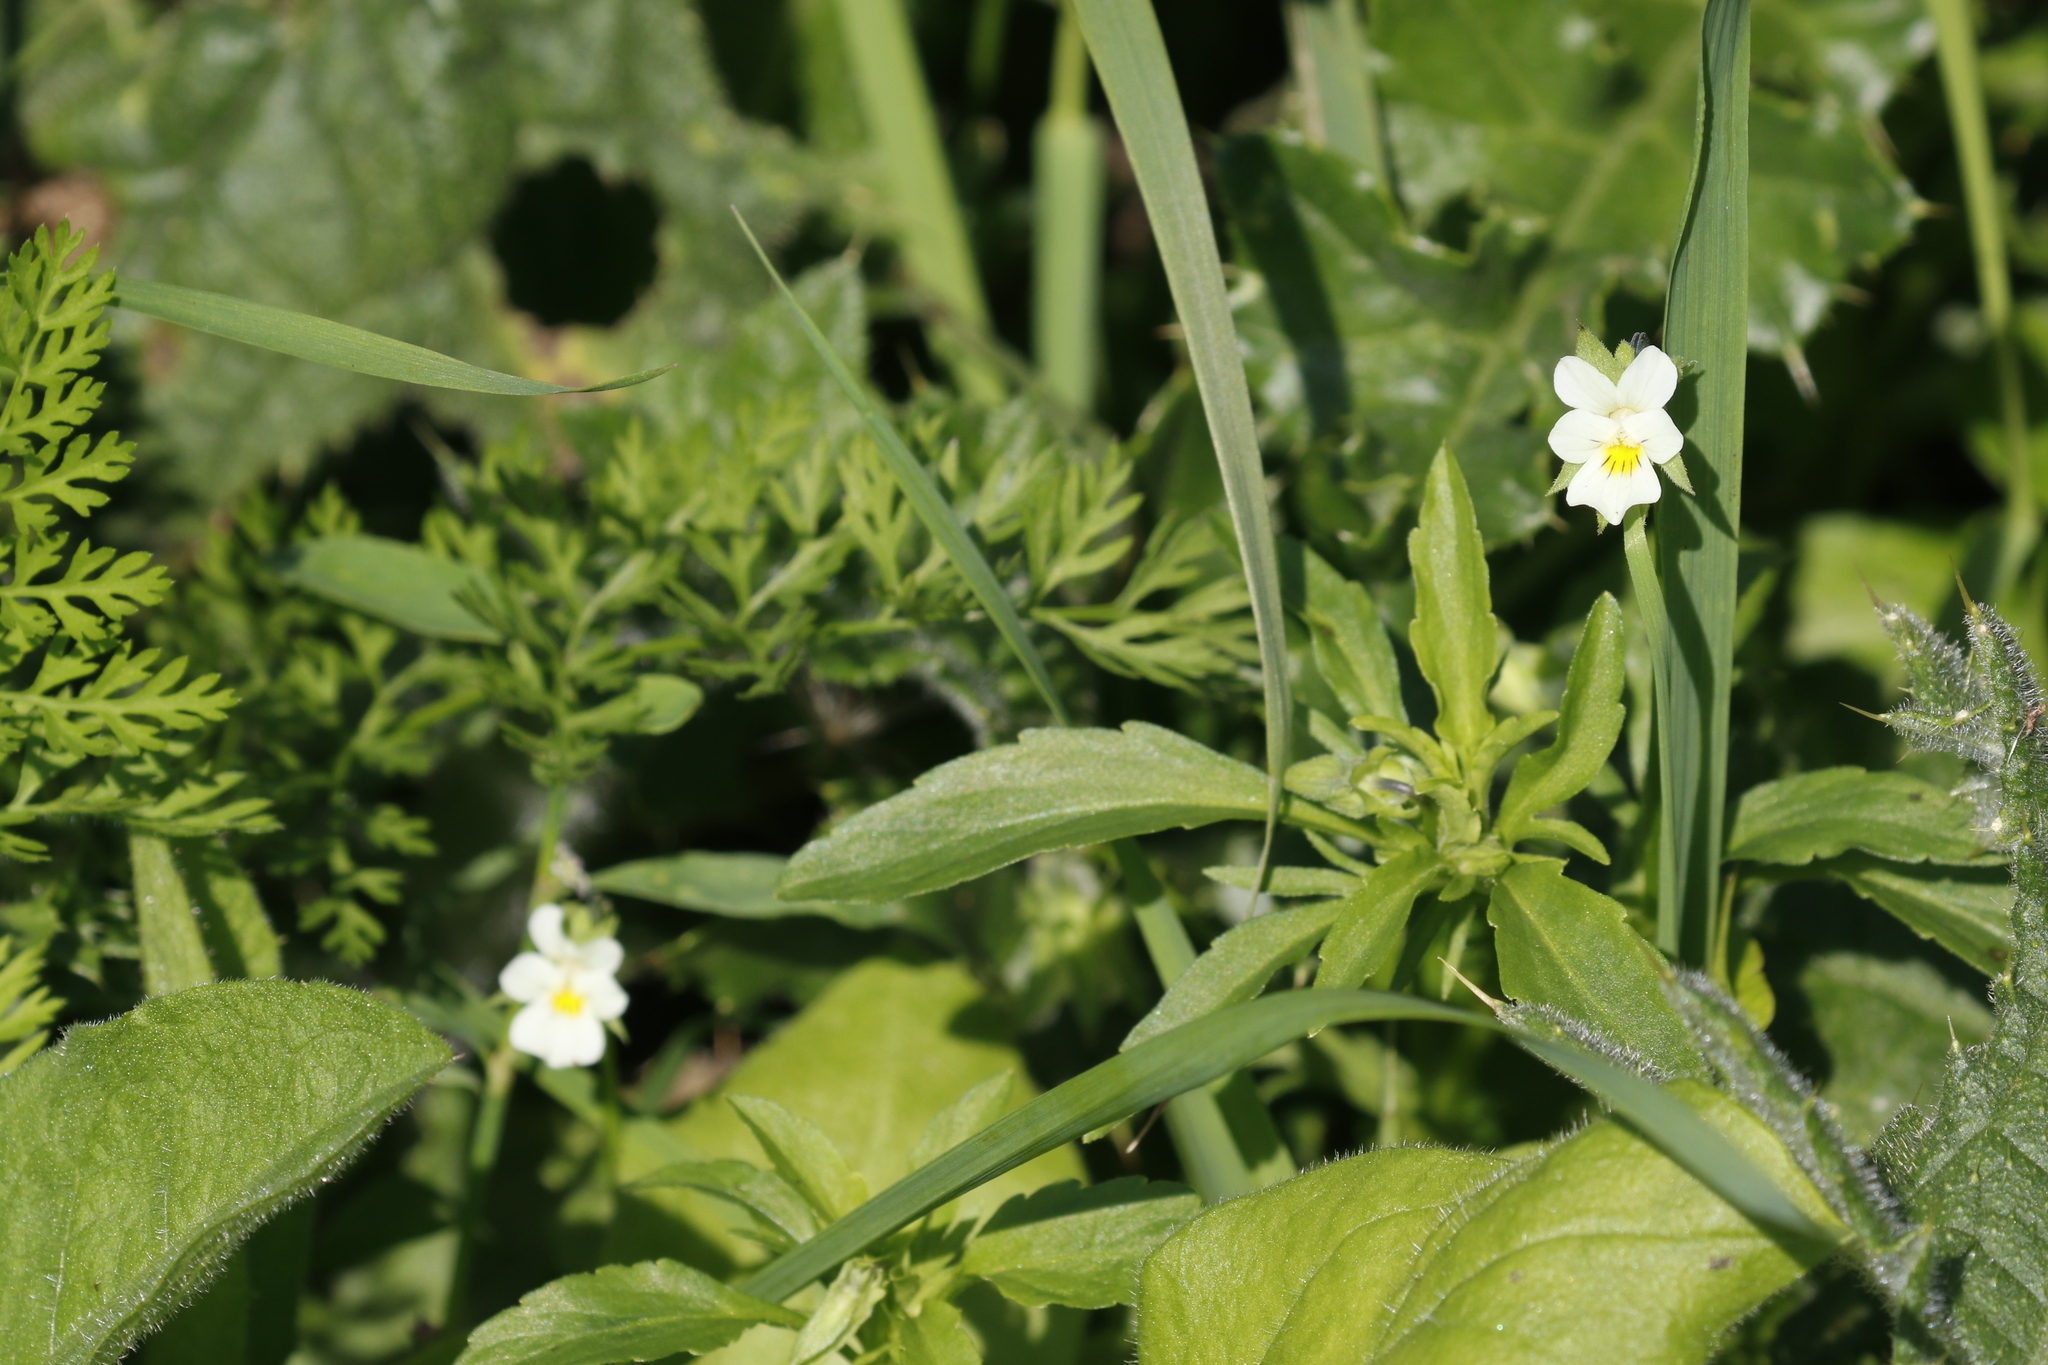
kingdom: Plantae
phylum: Tracheophyta
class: Magnoliopsida
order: Malpighiales
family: Violaceae
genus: Viola
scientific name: Viola arvensis
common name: Field pansy
